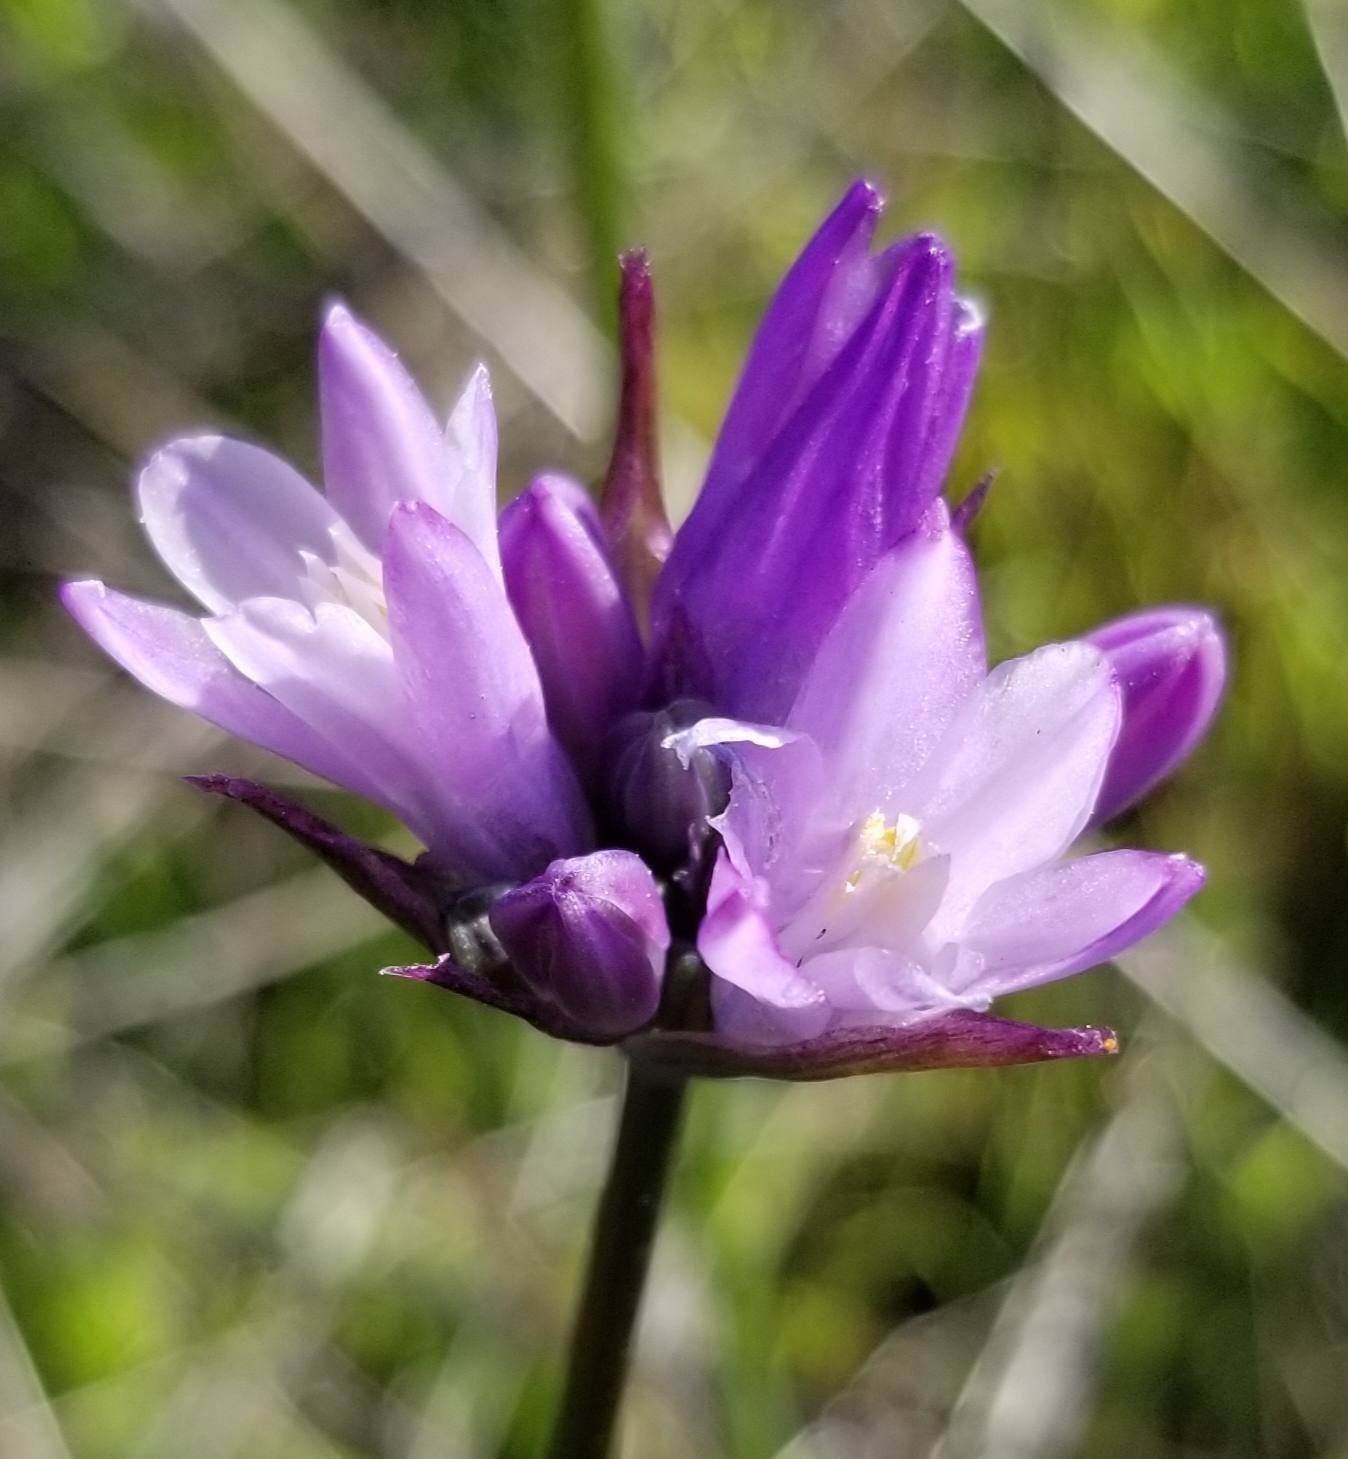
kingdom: Plantae
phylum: Tracheophyta
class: Liliopsida
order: Asparagales
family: Asparagaceae
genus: Dipterostemon
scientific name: Dipterostemon capitatus
